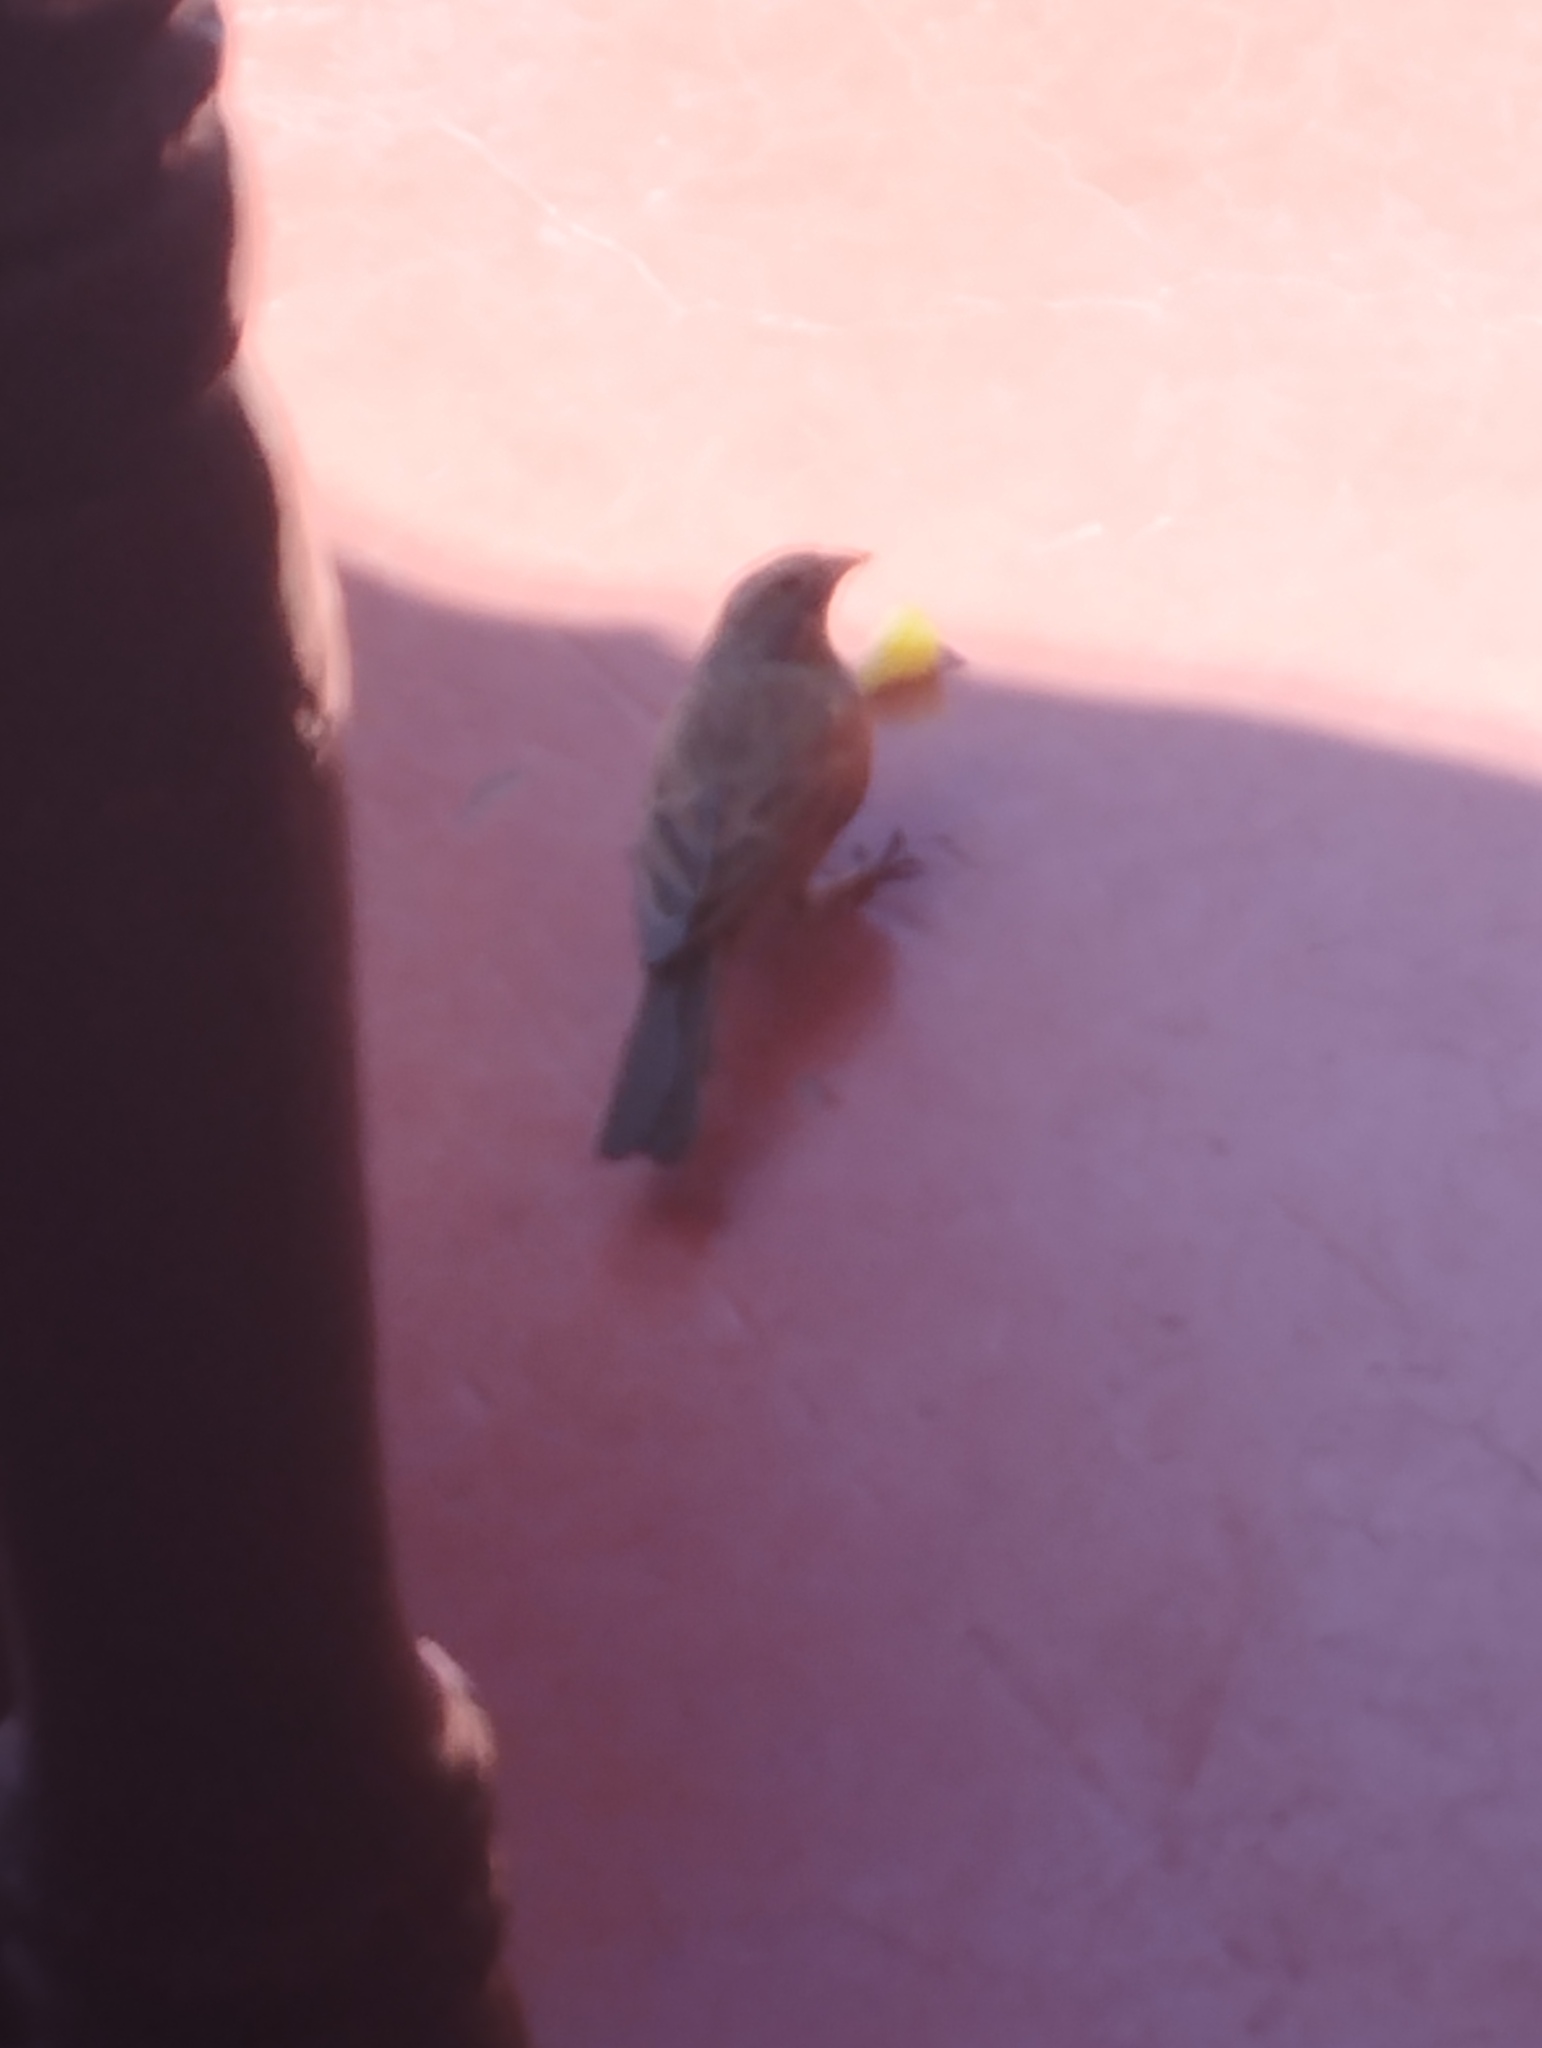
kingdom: Animalia
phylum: Chordata
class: Aves
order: Passeriformes
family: Emberizidae
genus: Emberiza
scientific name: Emberiza sahari
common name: House bunting
